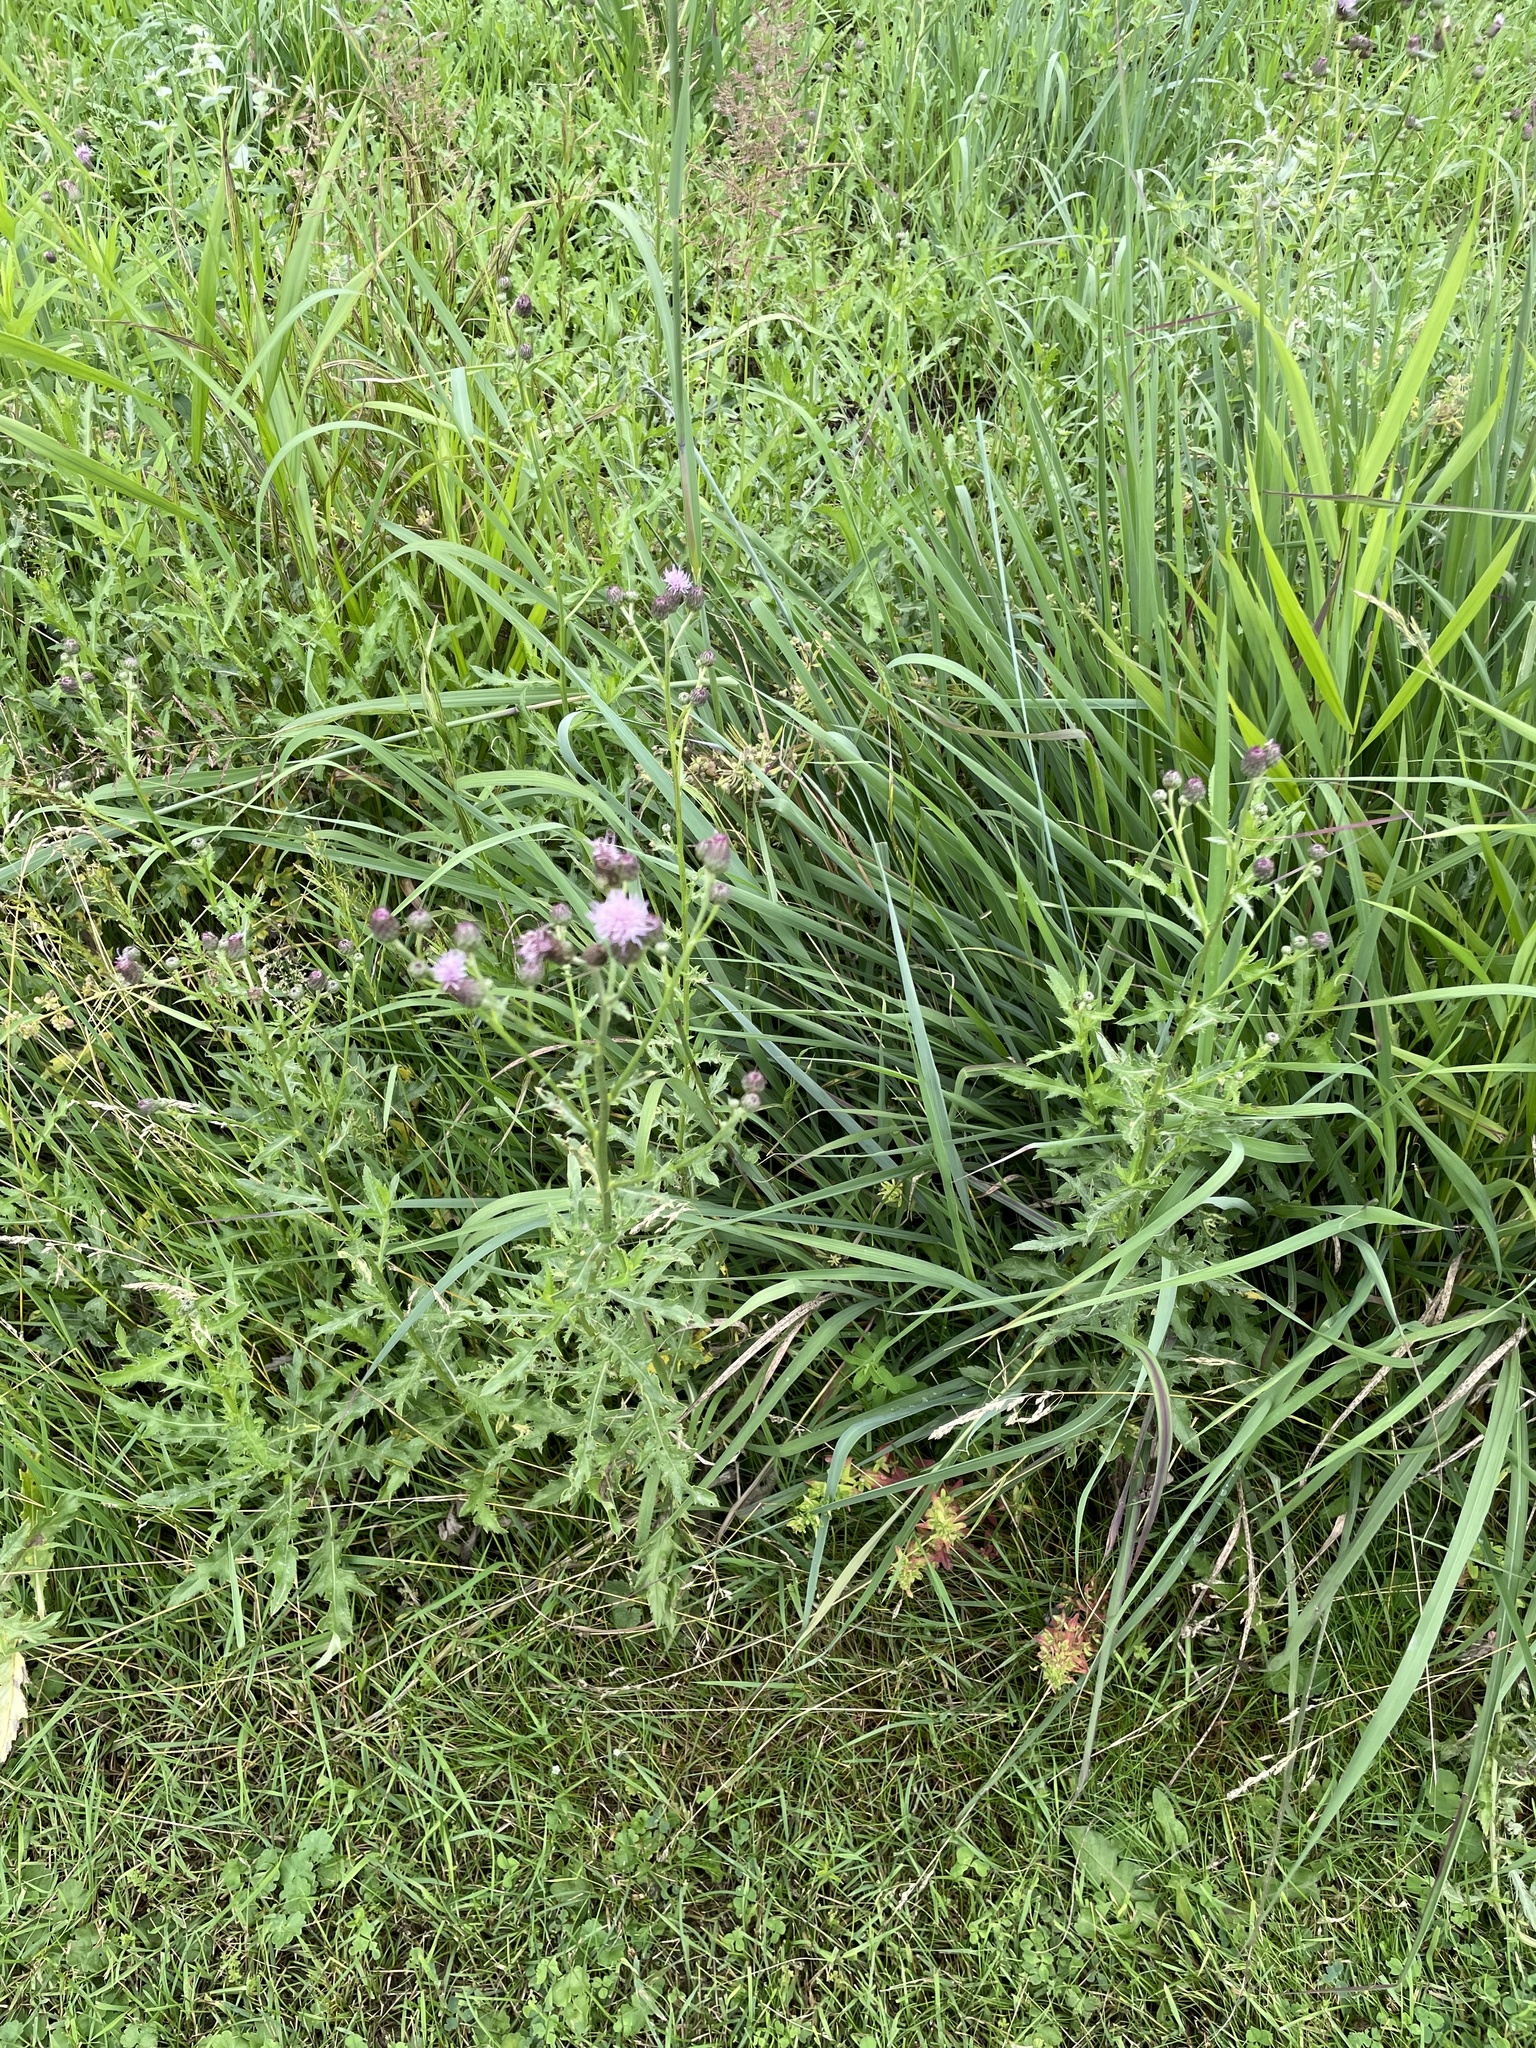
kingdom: Plantae
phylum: Tracheophyta
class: Magnoliopsida
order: Asterales
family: Asteraceae
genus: Cirsium
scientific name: Cirsium arvense
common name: Creeping thistle
